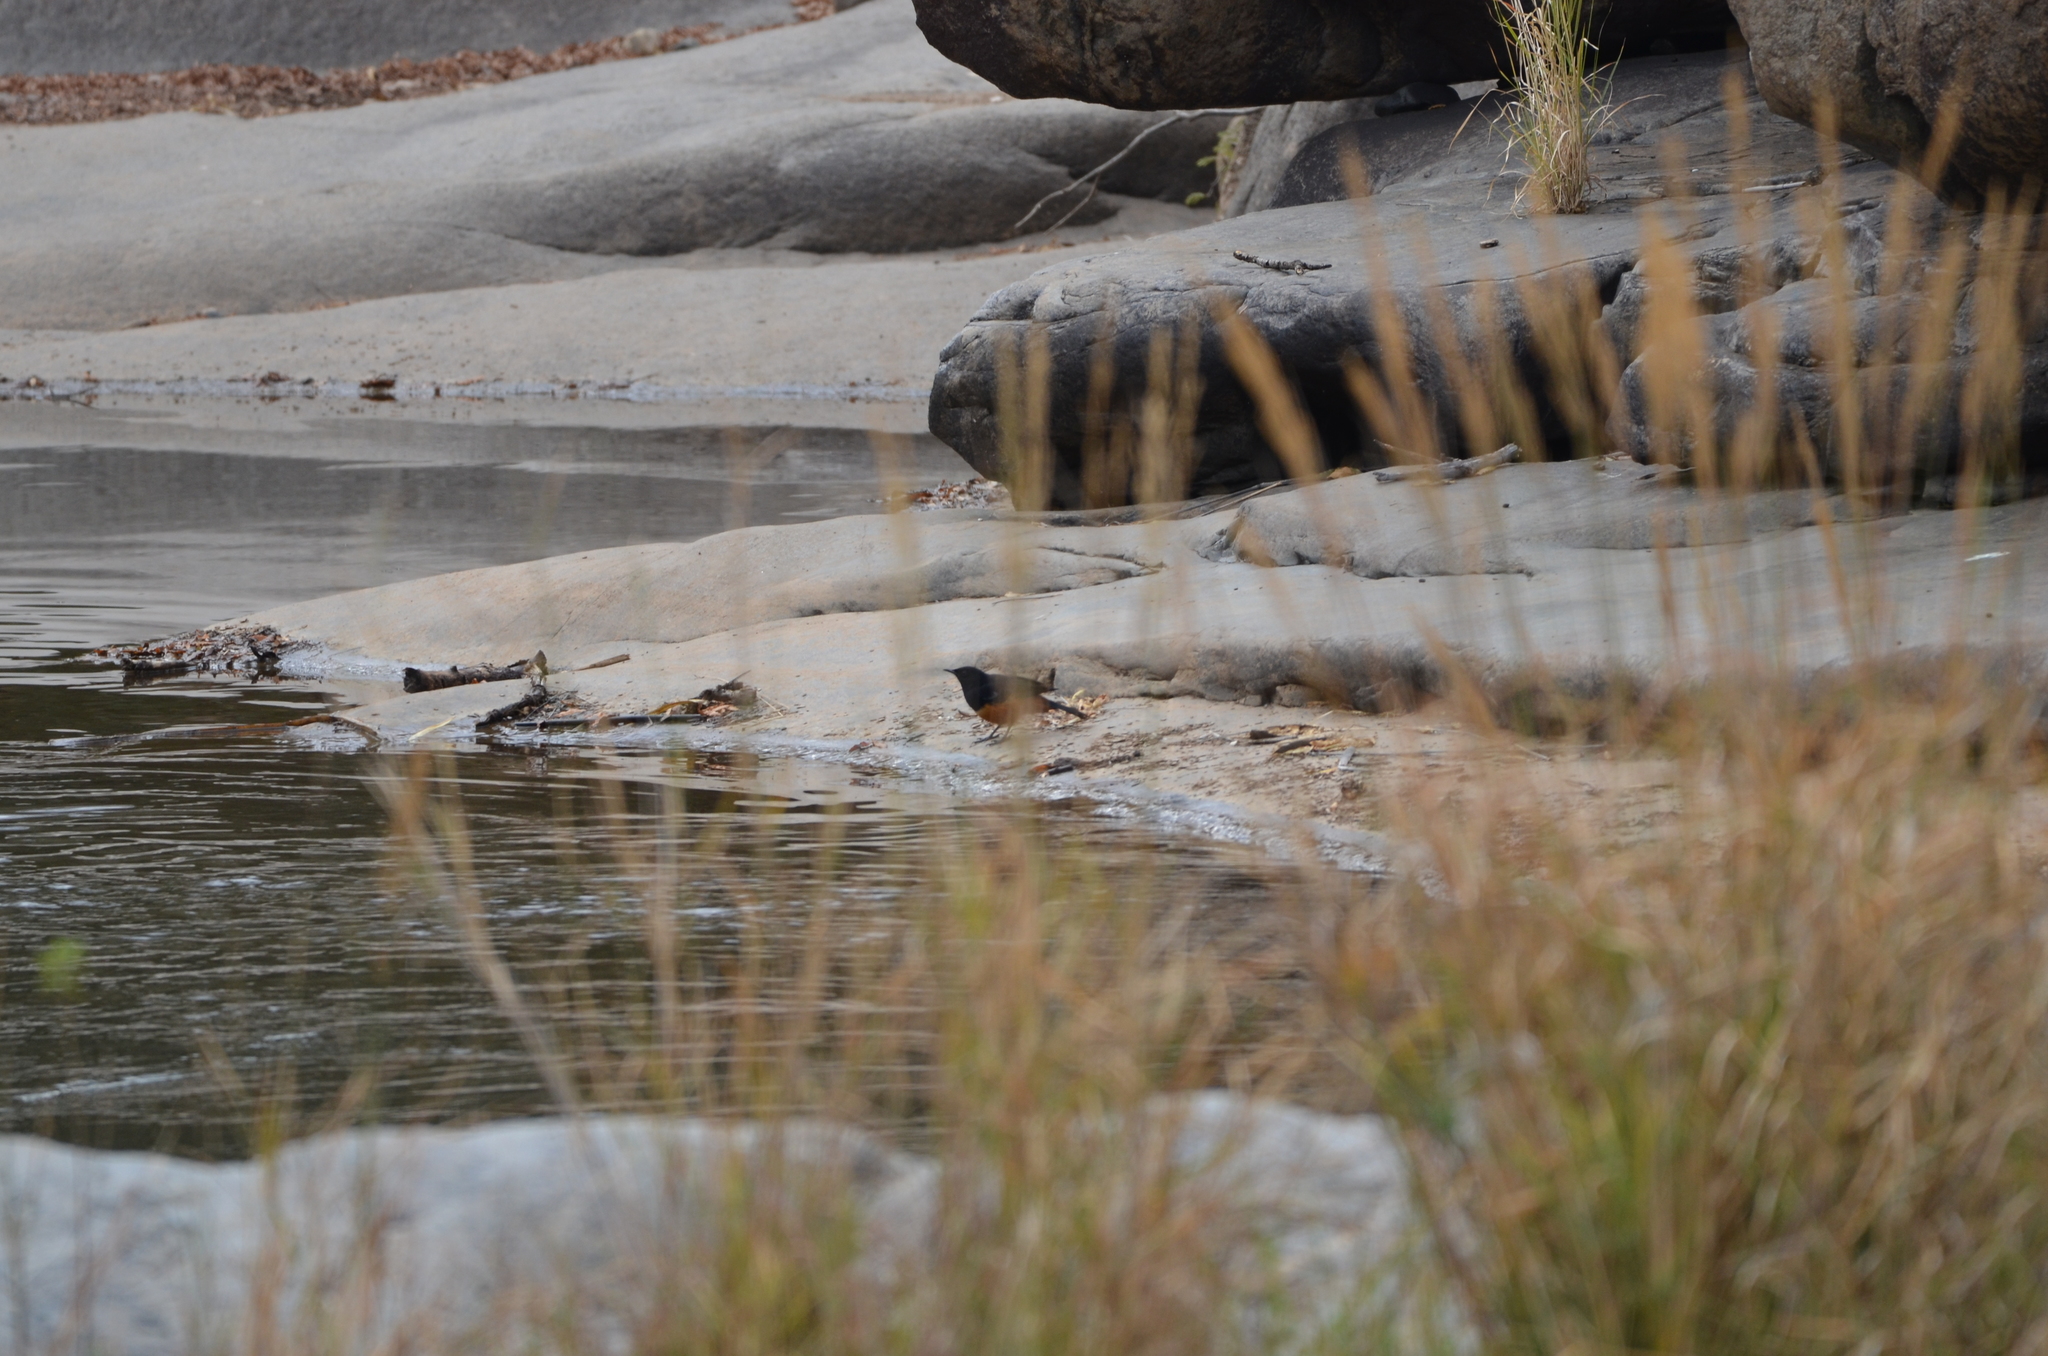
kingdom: Animalia
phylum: Chordata
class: Aves
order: Passeriformes
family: Muscicapidae
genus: Thamnolaea
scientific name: Thamnolaea cinnamomeiventris
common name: Mocking cliff chat
